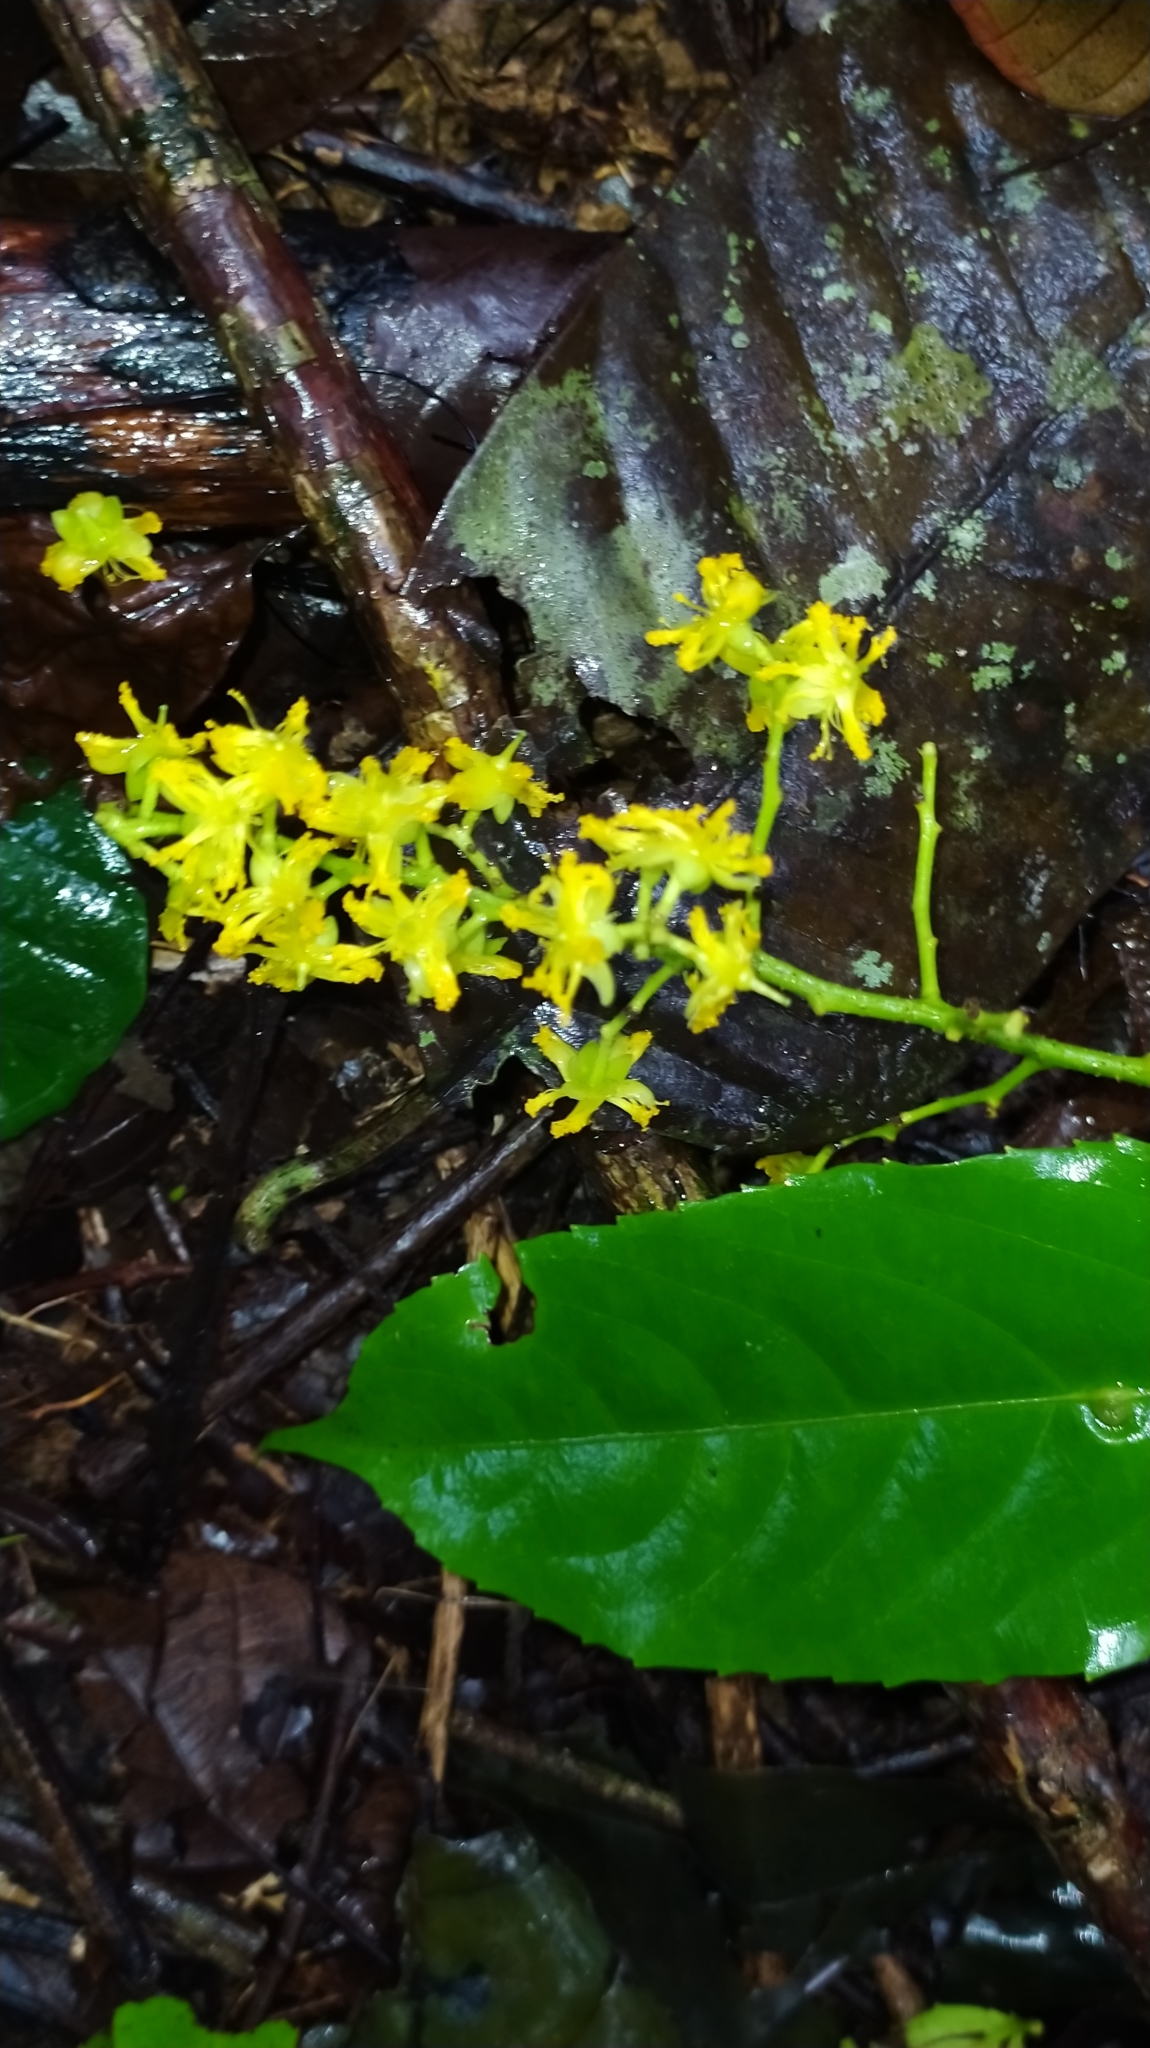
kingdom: Plantae
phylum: Tracheophyta
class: Magnoliopsida
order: Malpighiales
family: Salicaceae
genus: Banara
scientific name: Banara guianensis
